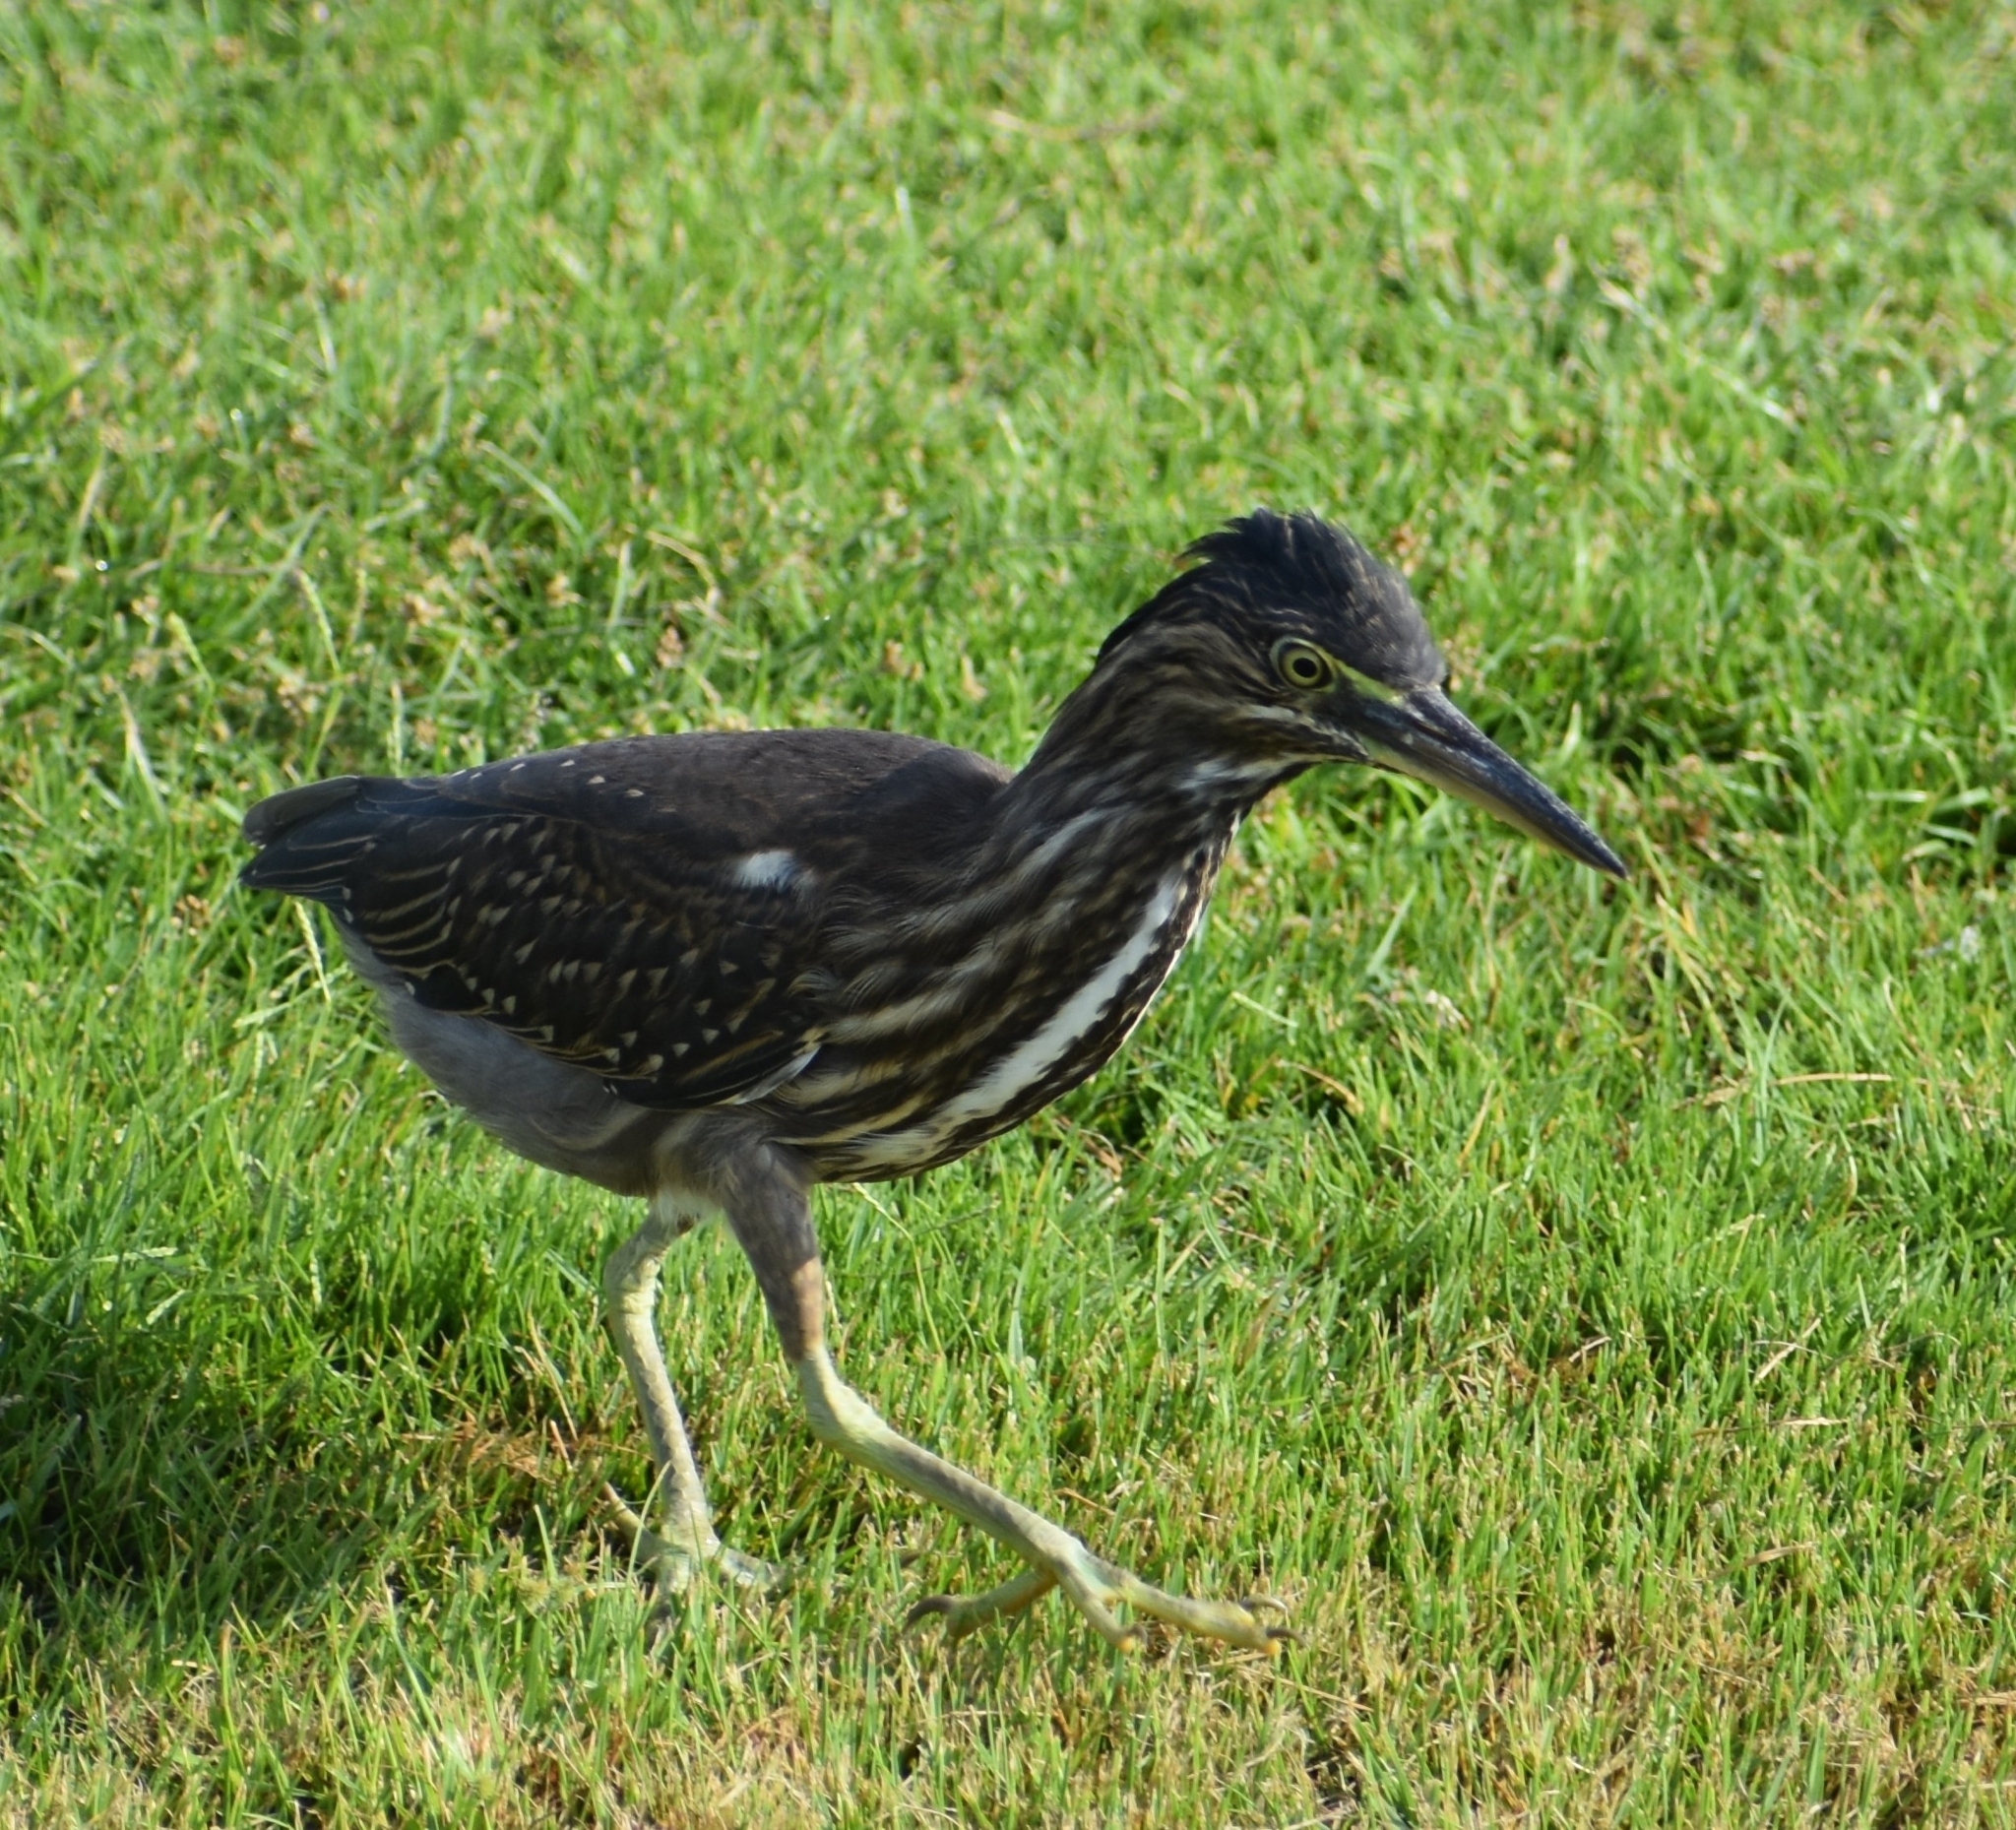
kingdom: Animalia
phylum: Chordata
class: Aves
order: Pelecaniformes
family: Ardeidae
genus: Butorides
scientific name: Butorides striata
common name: Striated heron
